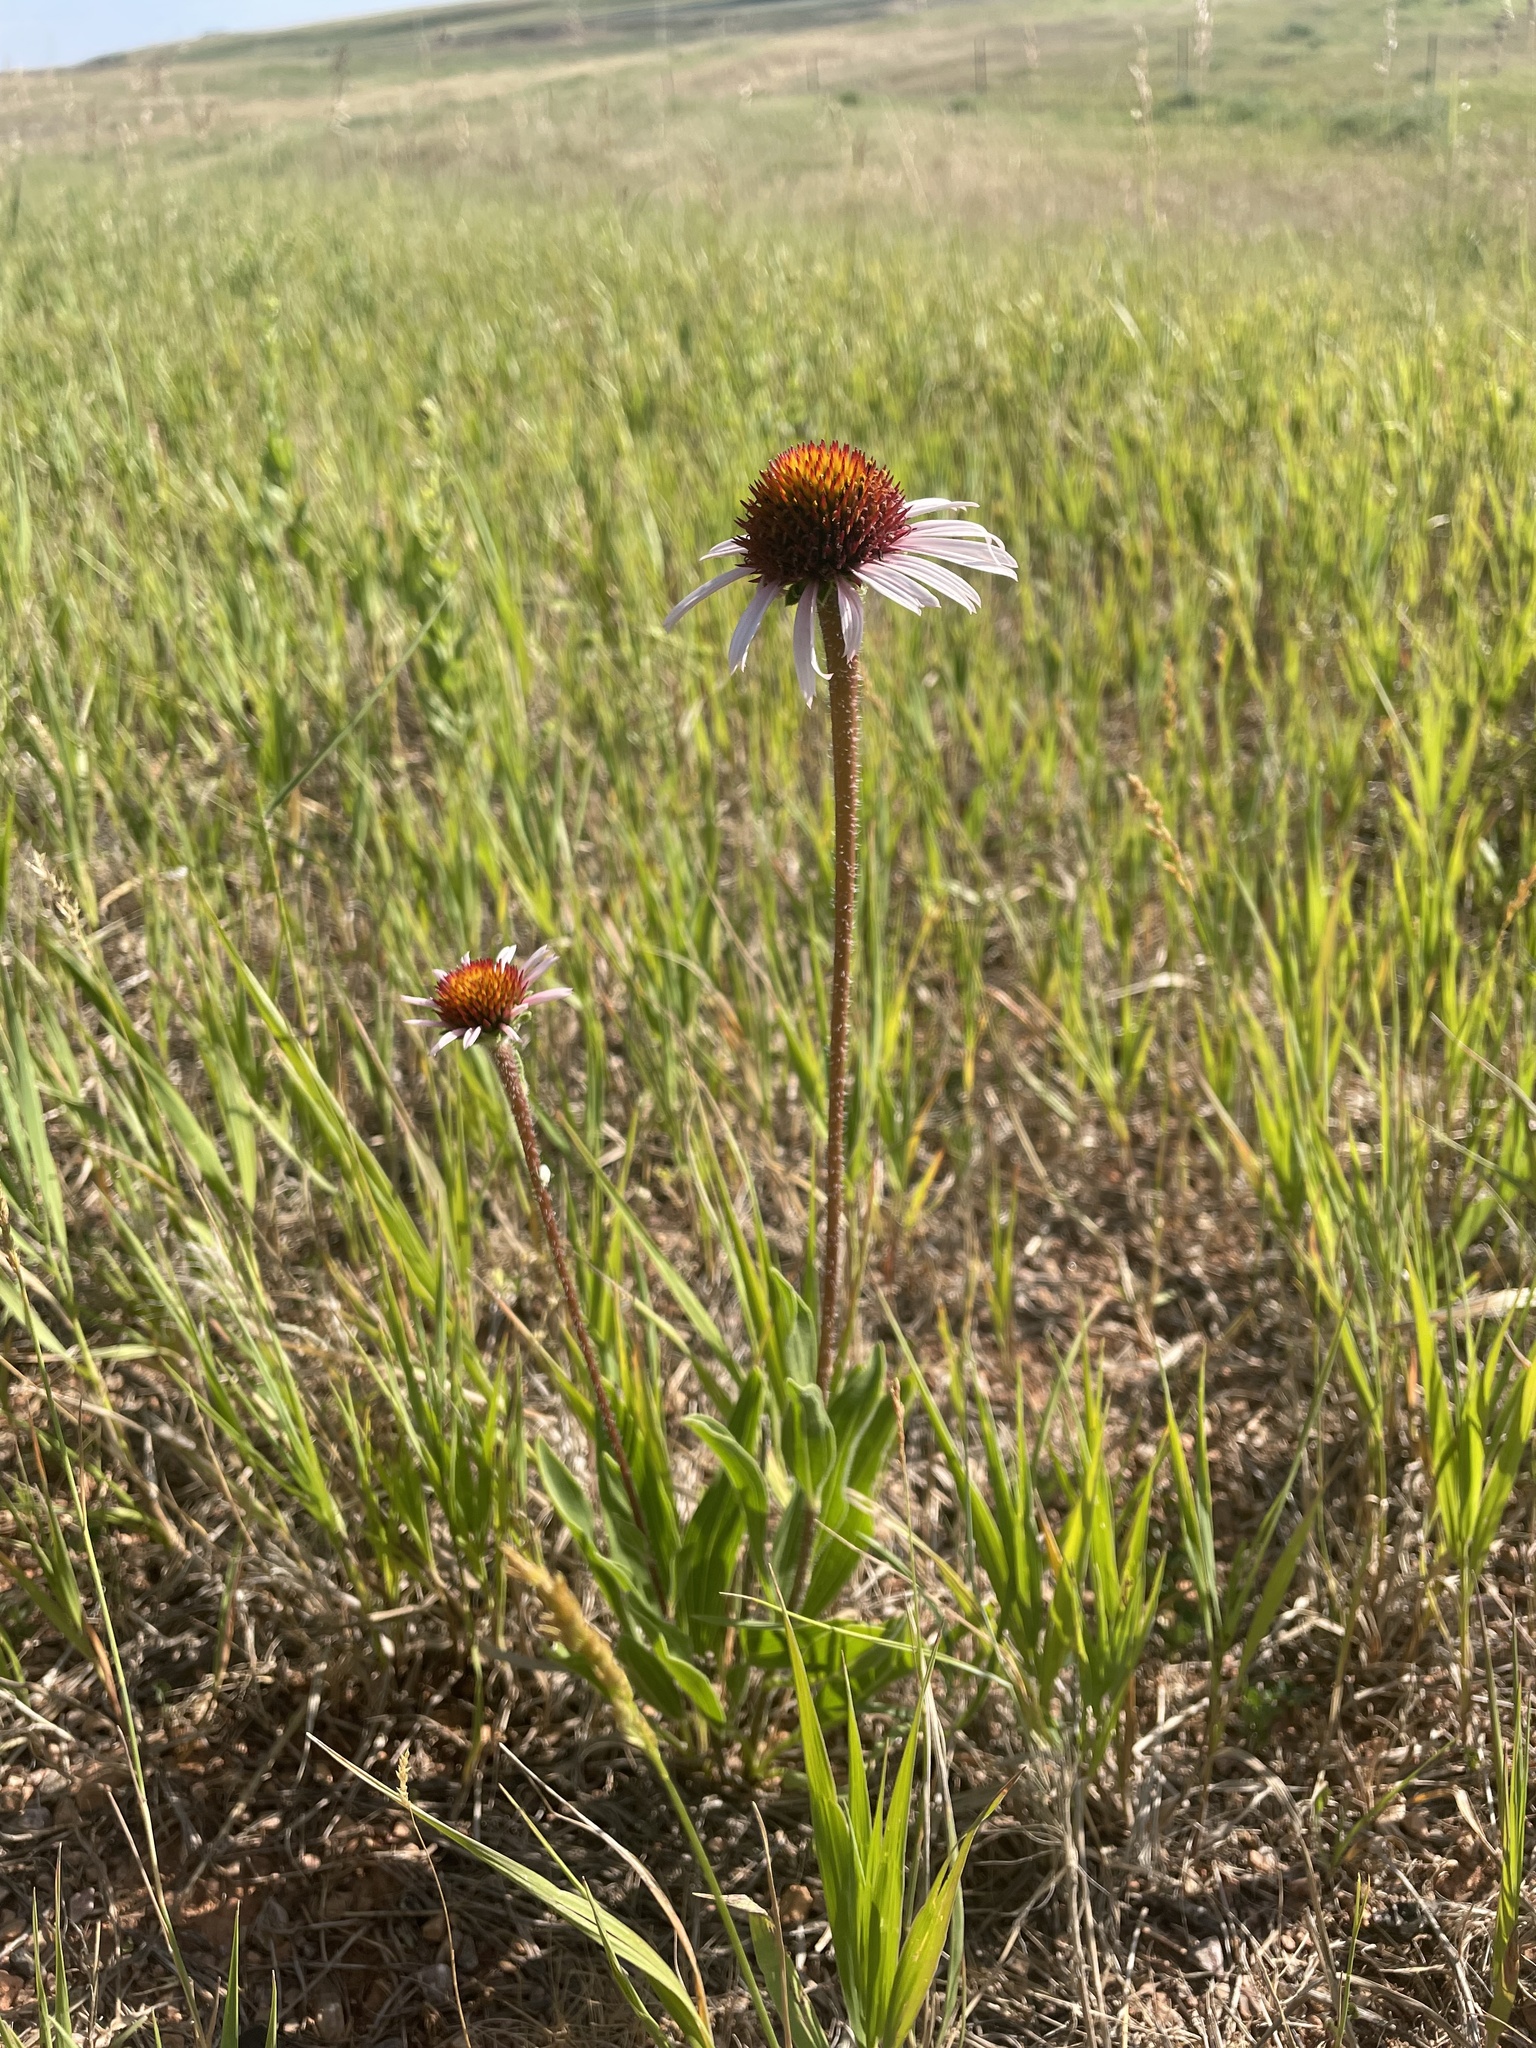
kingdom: Plantae
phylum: Tracheophyta
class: Magnoliopsida
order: Asterales
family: Asteraceae
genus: Echinacea
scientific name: Echinacea angustifolia
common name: Black-sampson echinacea
